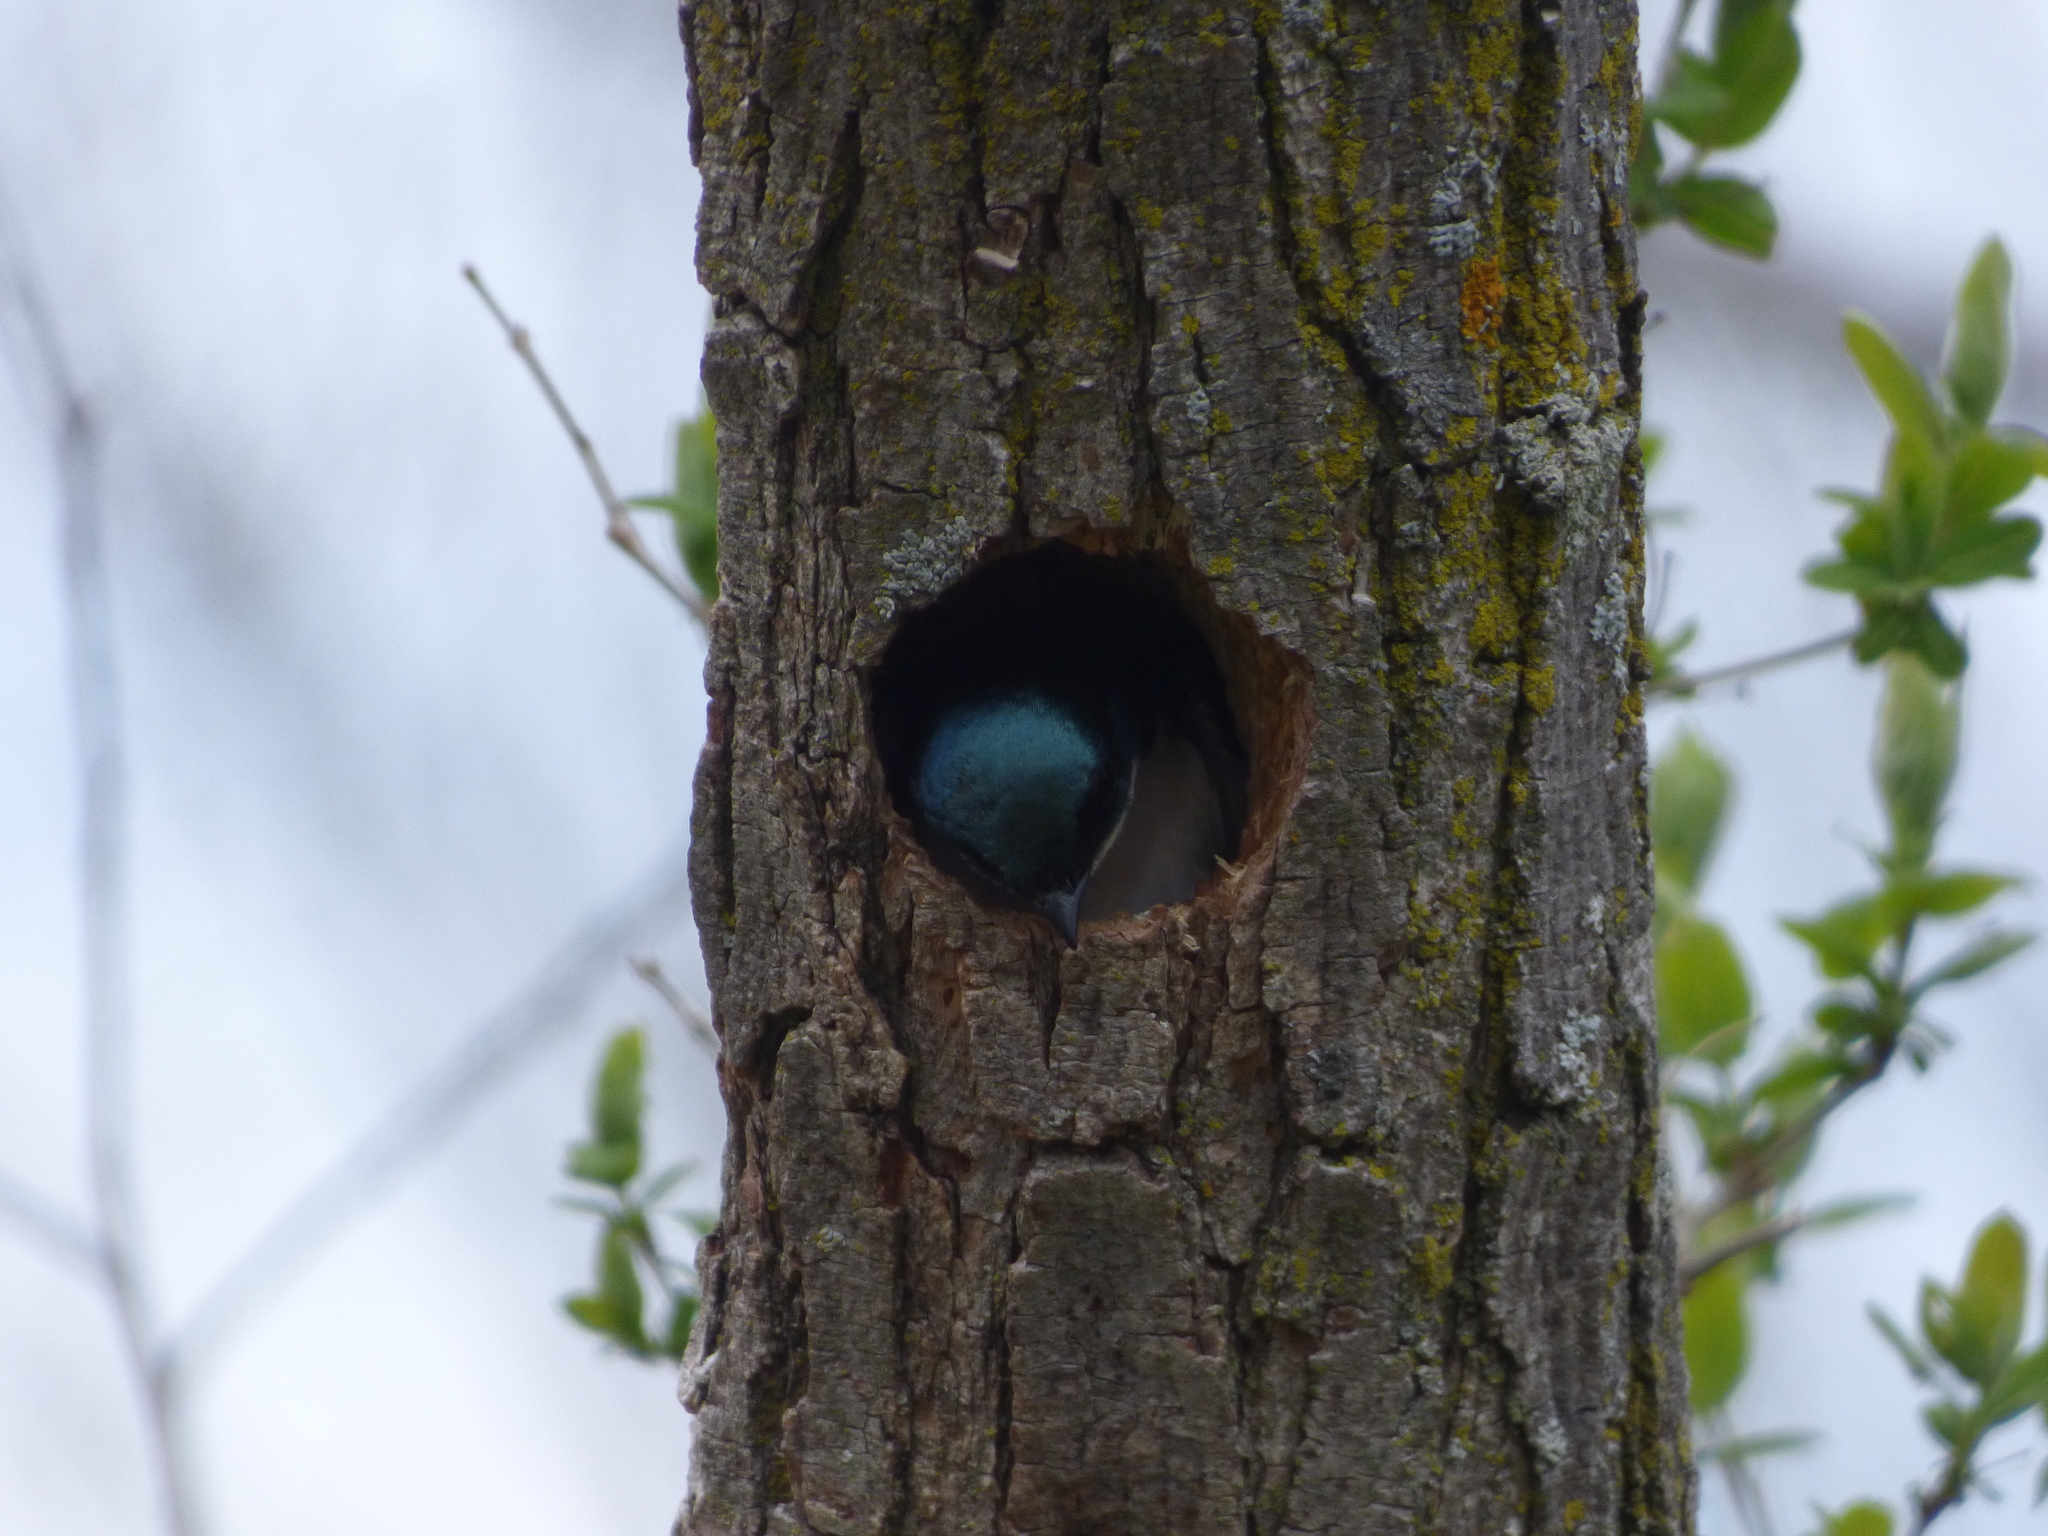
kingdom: Animalia
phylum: Chordata
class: Aves
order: Passeriformes
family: Hirundinidae
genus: Tachycineta
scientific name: Tachycineta bicolor
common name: Tree swallow
